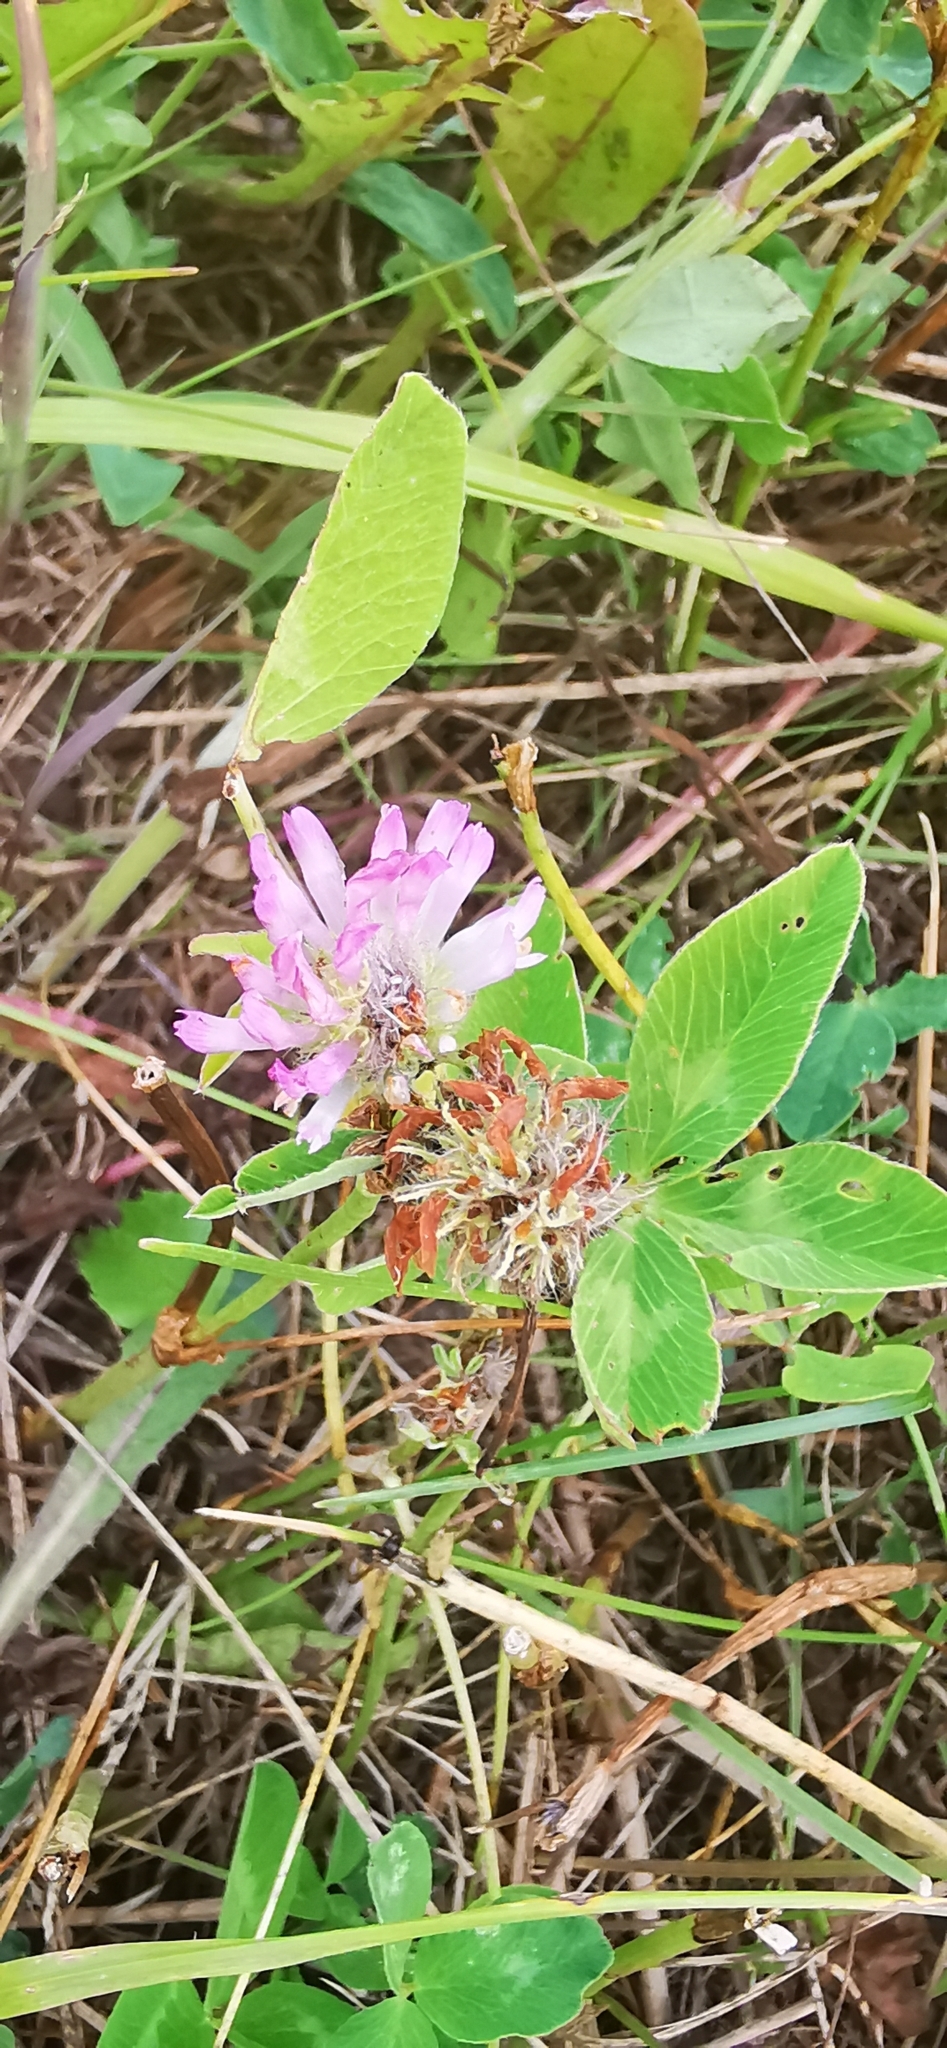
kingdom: Plantae
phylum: Tracheophyta
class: Magnoliopsida
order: Fabales
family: Fabaceae
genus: Trifolium
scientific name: Trifolium pratense
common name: Red clover
